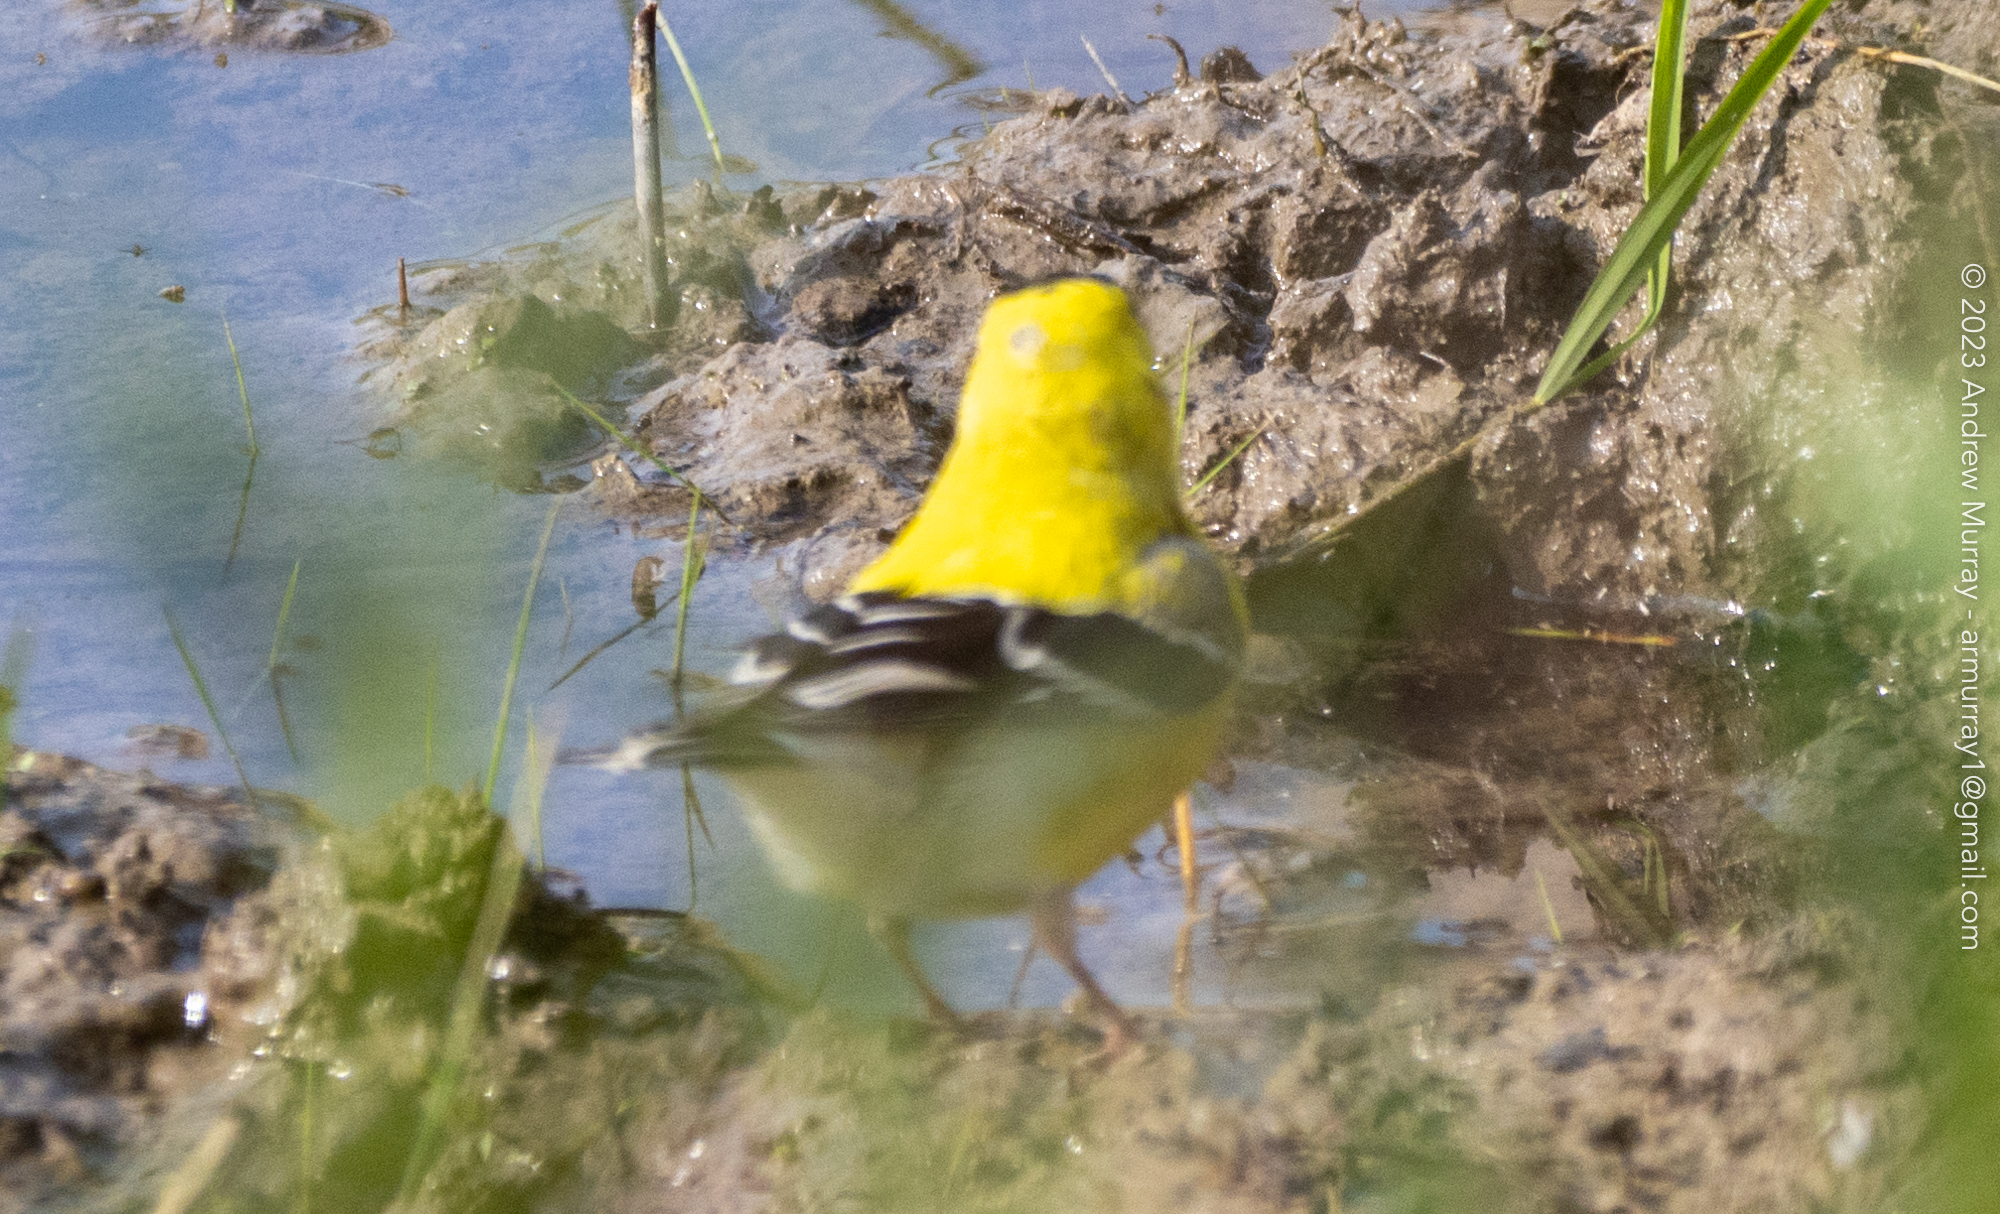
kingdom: Animalia
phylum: Chordata
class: Aves
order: Passeriformes
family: Fringillidae
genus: Spinus
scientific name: Spinus tristis
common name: American goldfinch
